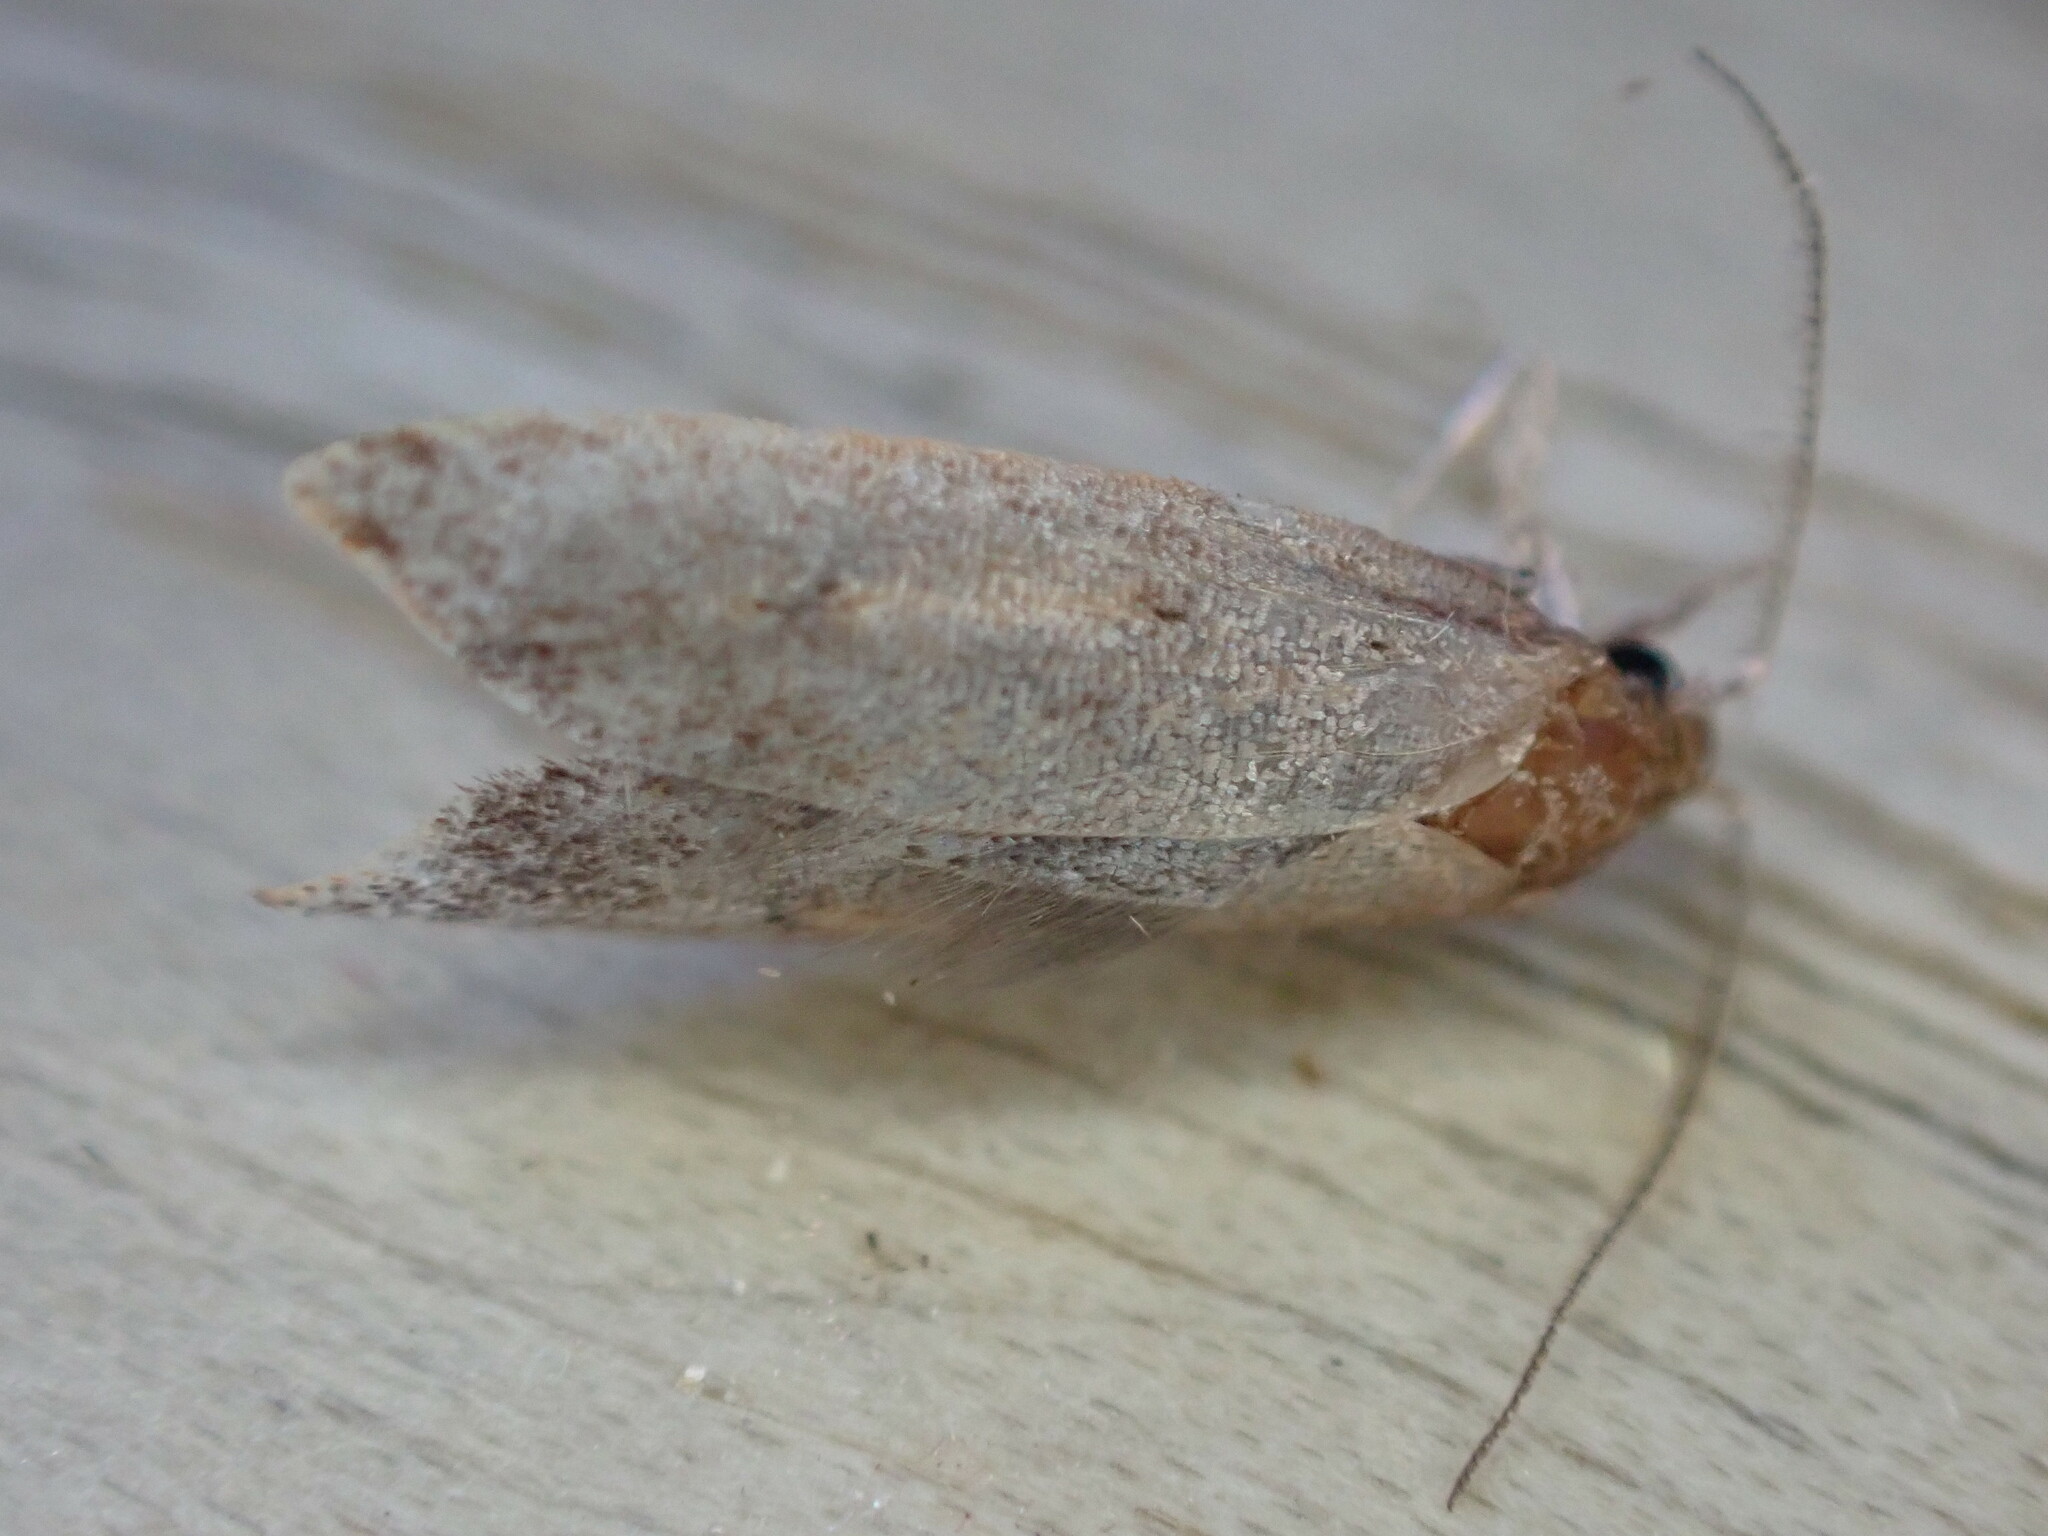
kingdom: Animalia
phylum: Arthropoda
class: Insecta
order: Lepidoptera
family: Oecophoridae
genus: Tachystola
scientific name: Tachystola acroxantha
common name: Ruddy streak
